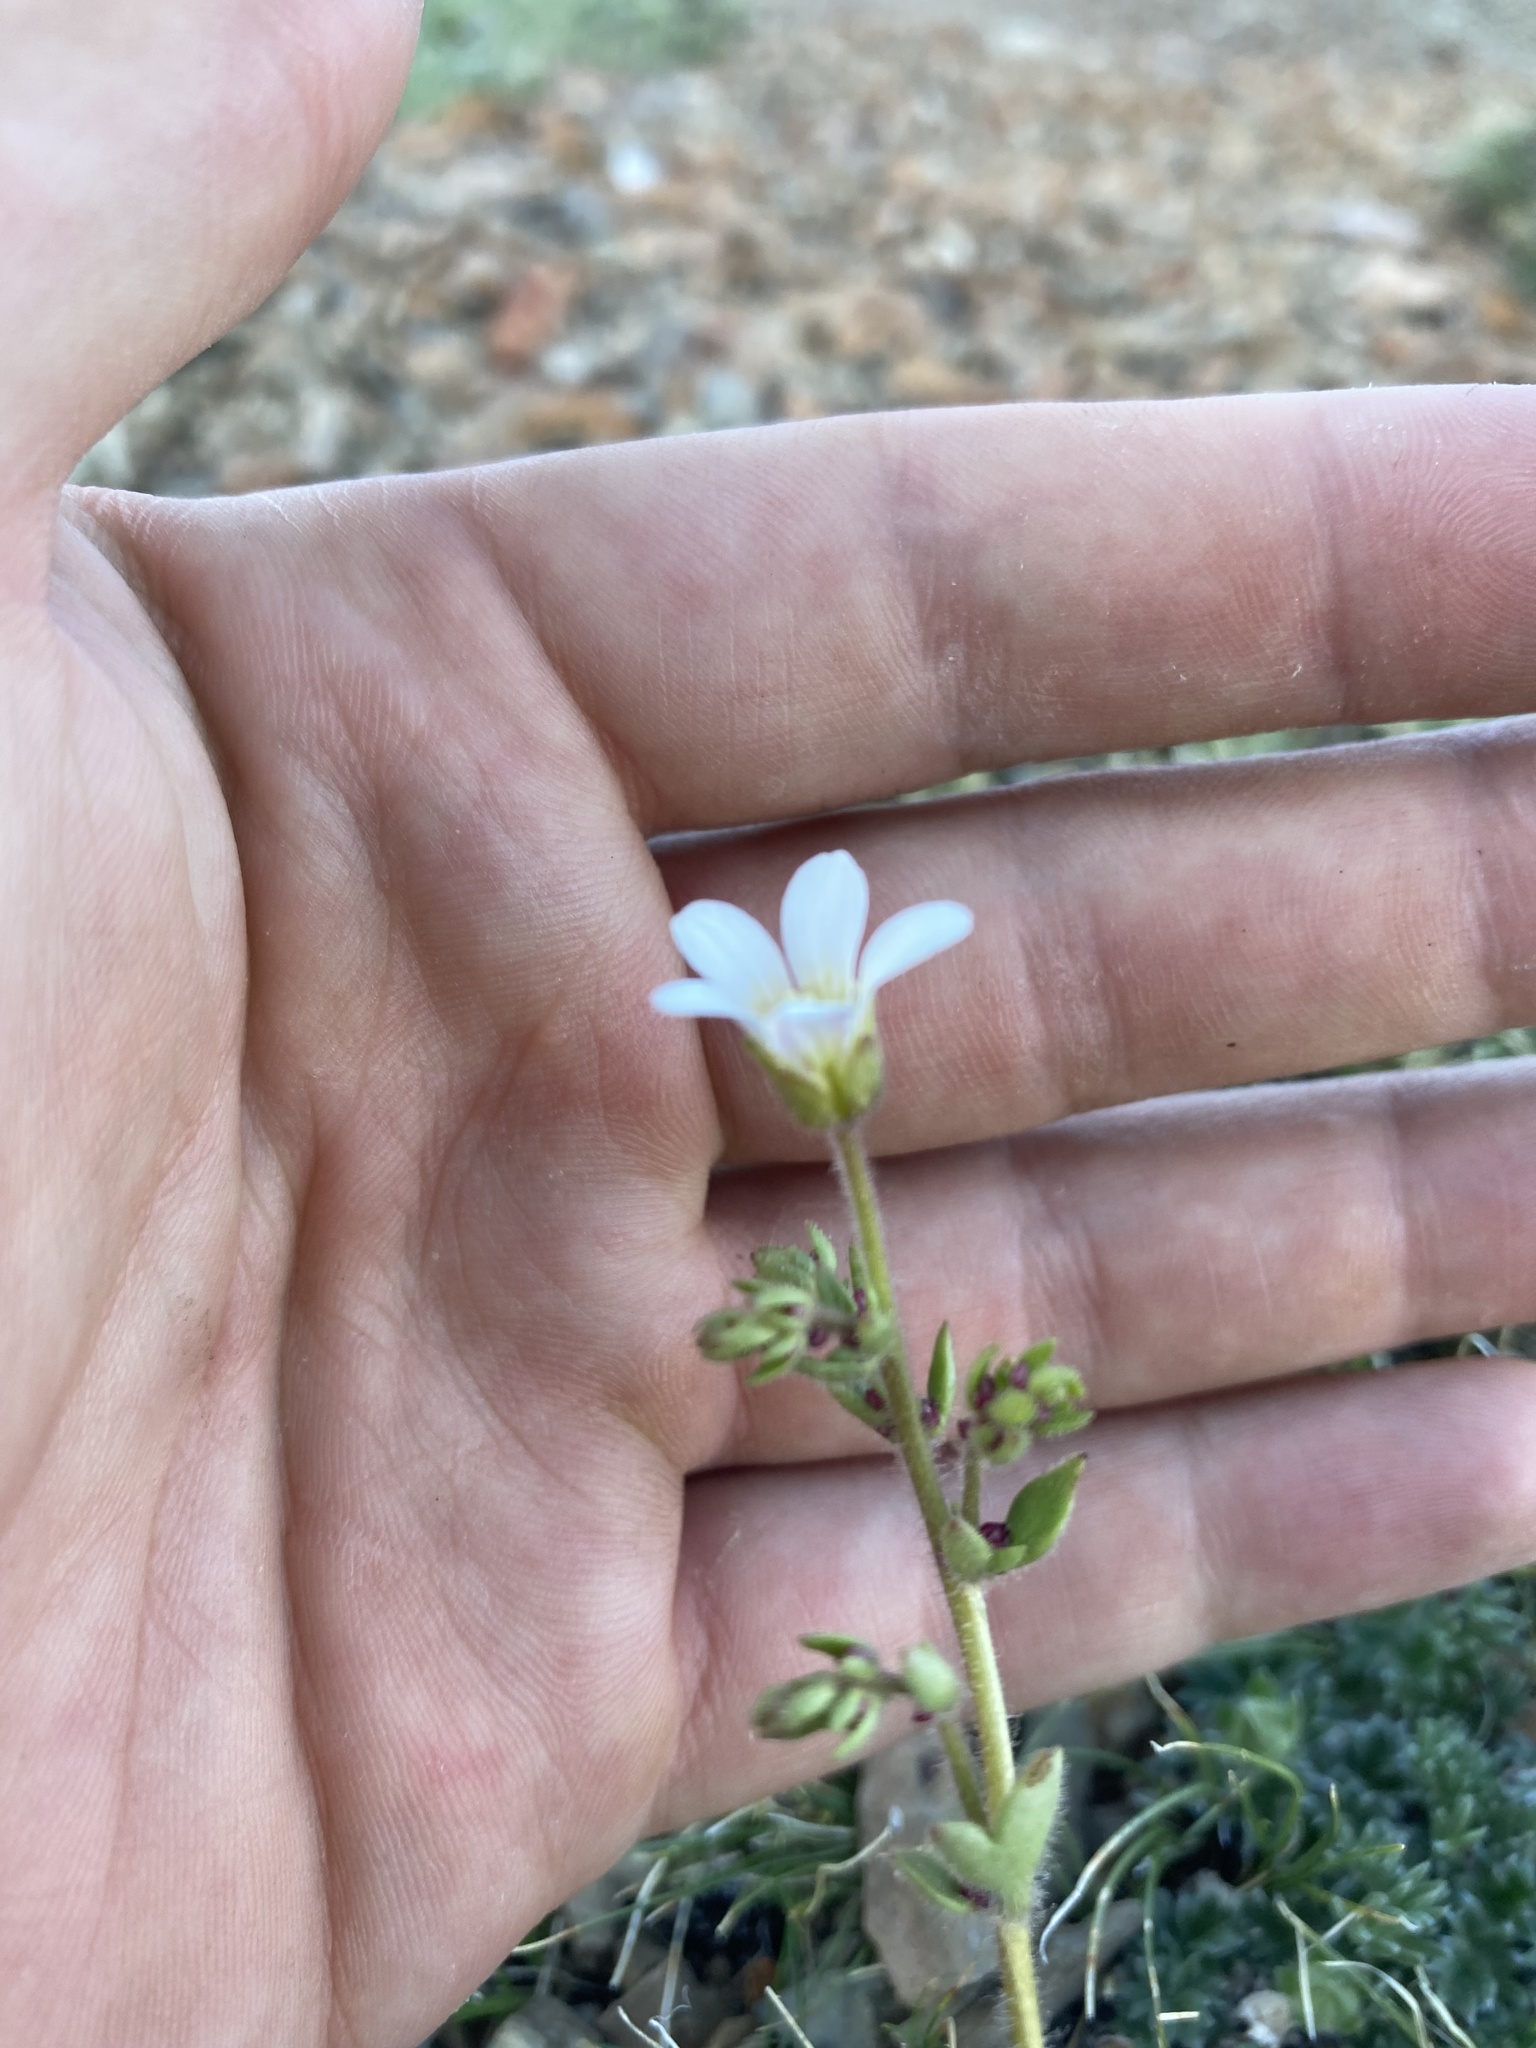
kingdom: Plantae
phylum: Tracheophyta
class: Magnoliopsida
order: Saxifragales
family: Saxifragaceae
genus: Saxifraga
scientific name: Saxifraga cernua
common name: Drooping saxifrage
